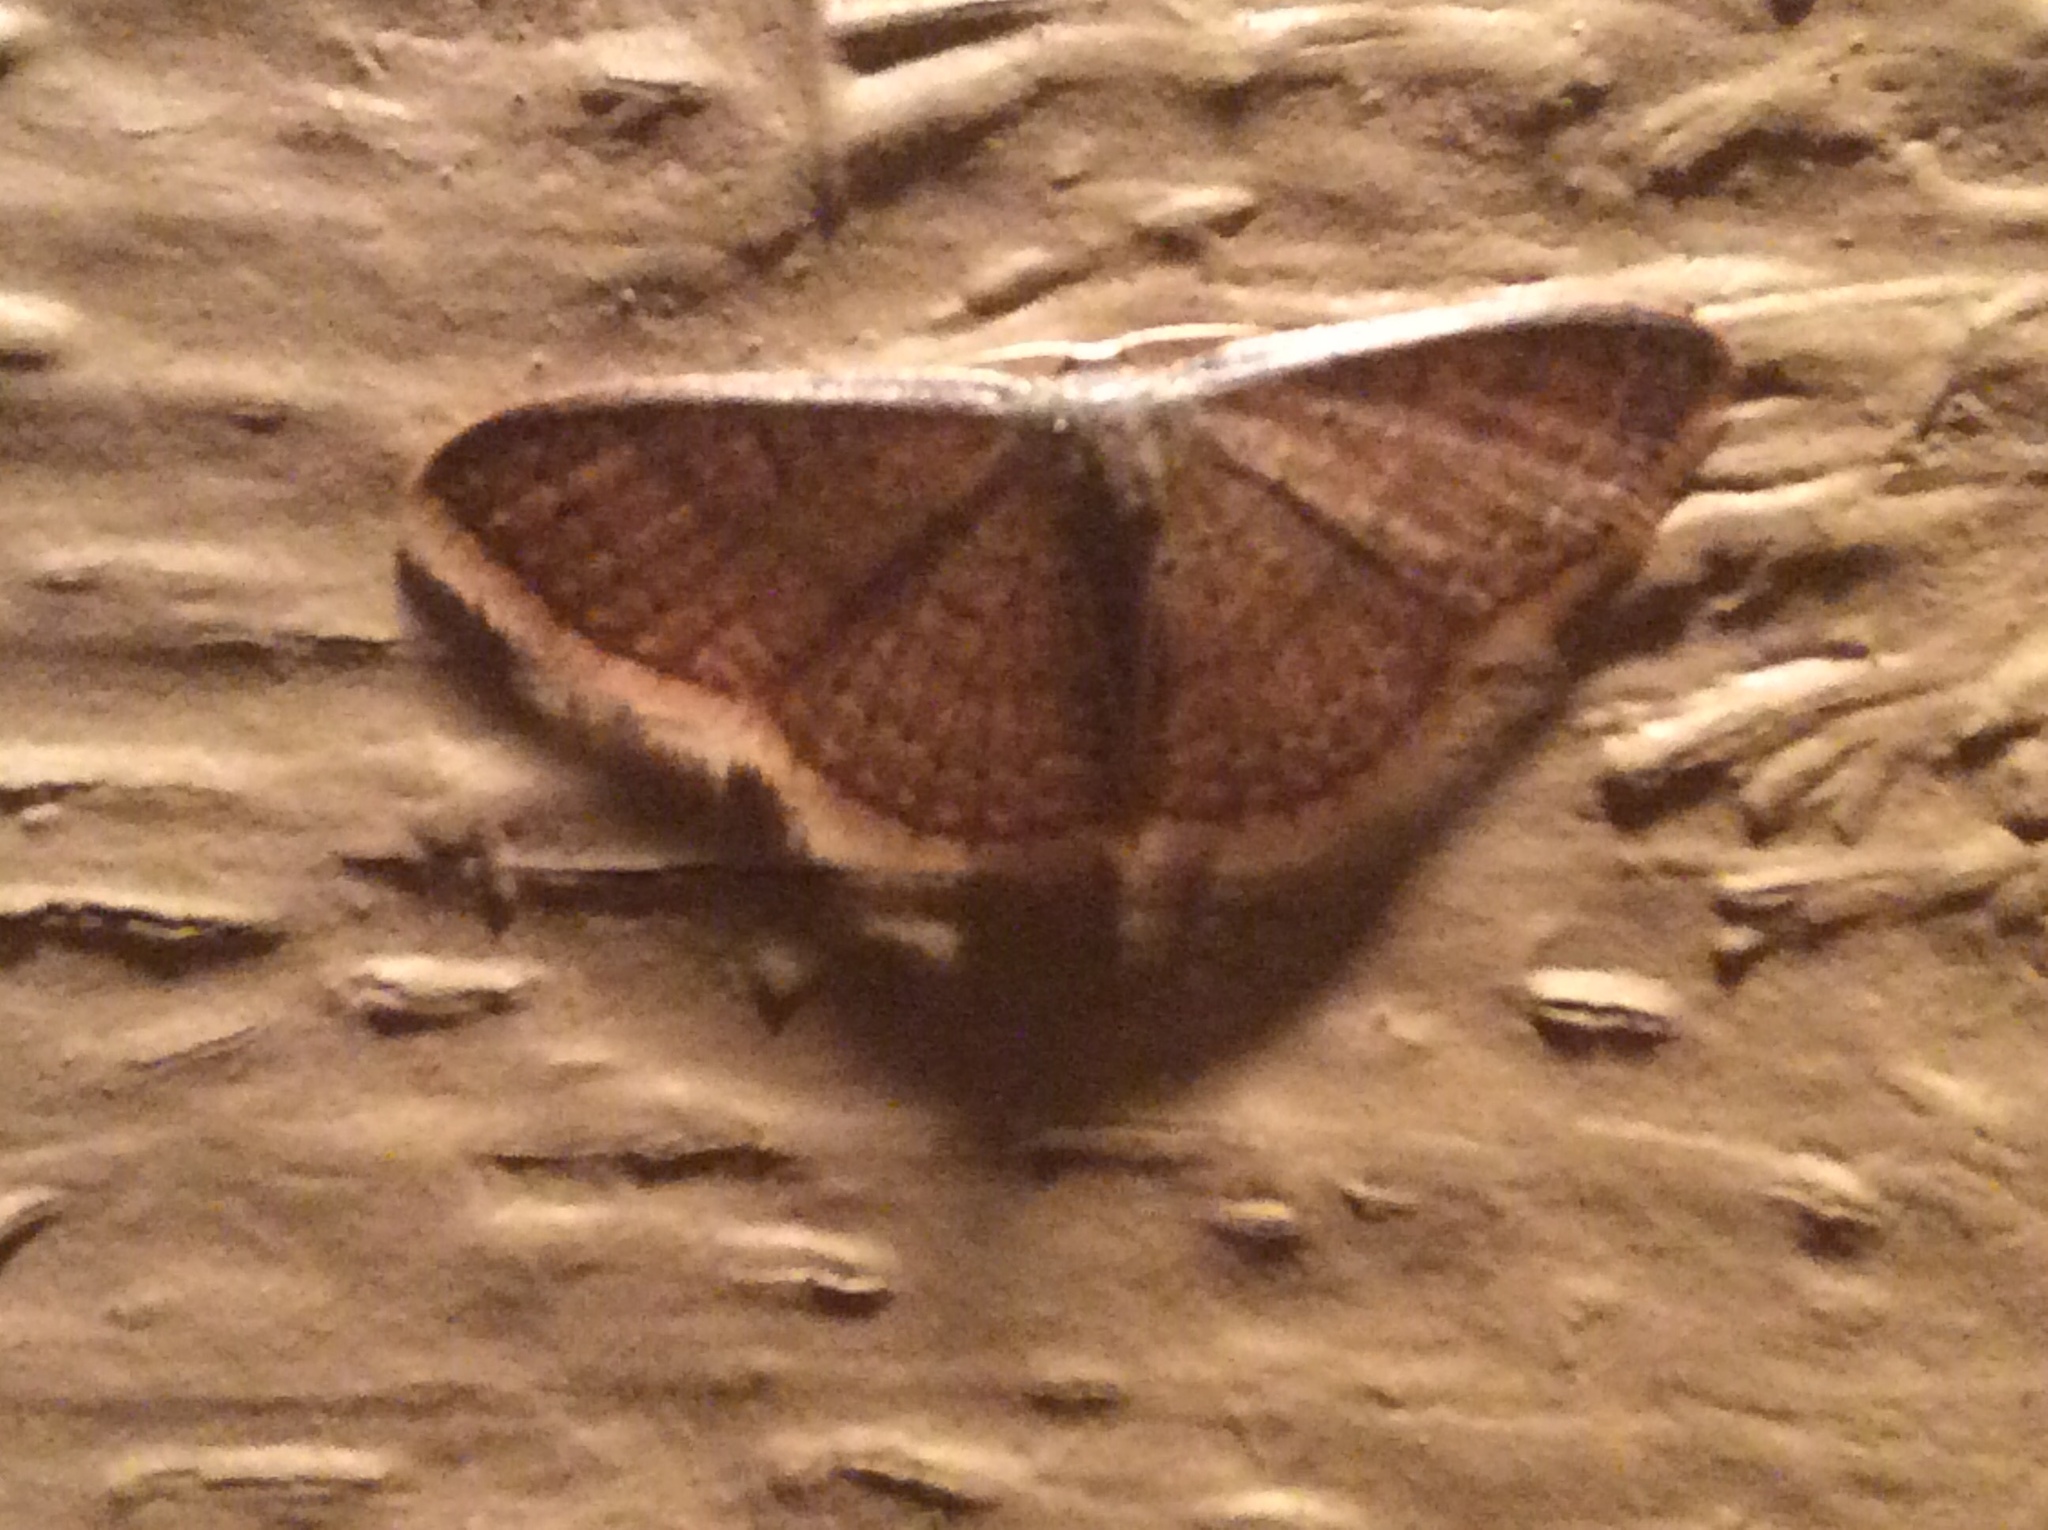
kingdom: Animalia
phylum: Arthropoda
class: Insecta
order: Lepidoptera
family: Geometridae
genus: Pleuroprucha
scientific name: Pleuroprucha insulsaria
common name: Common tan wave
